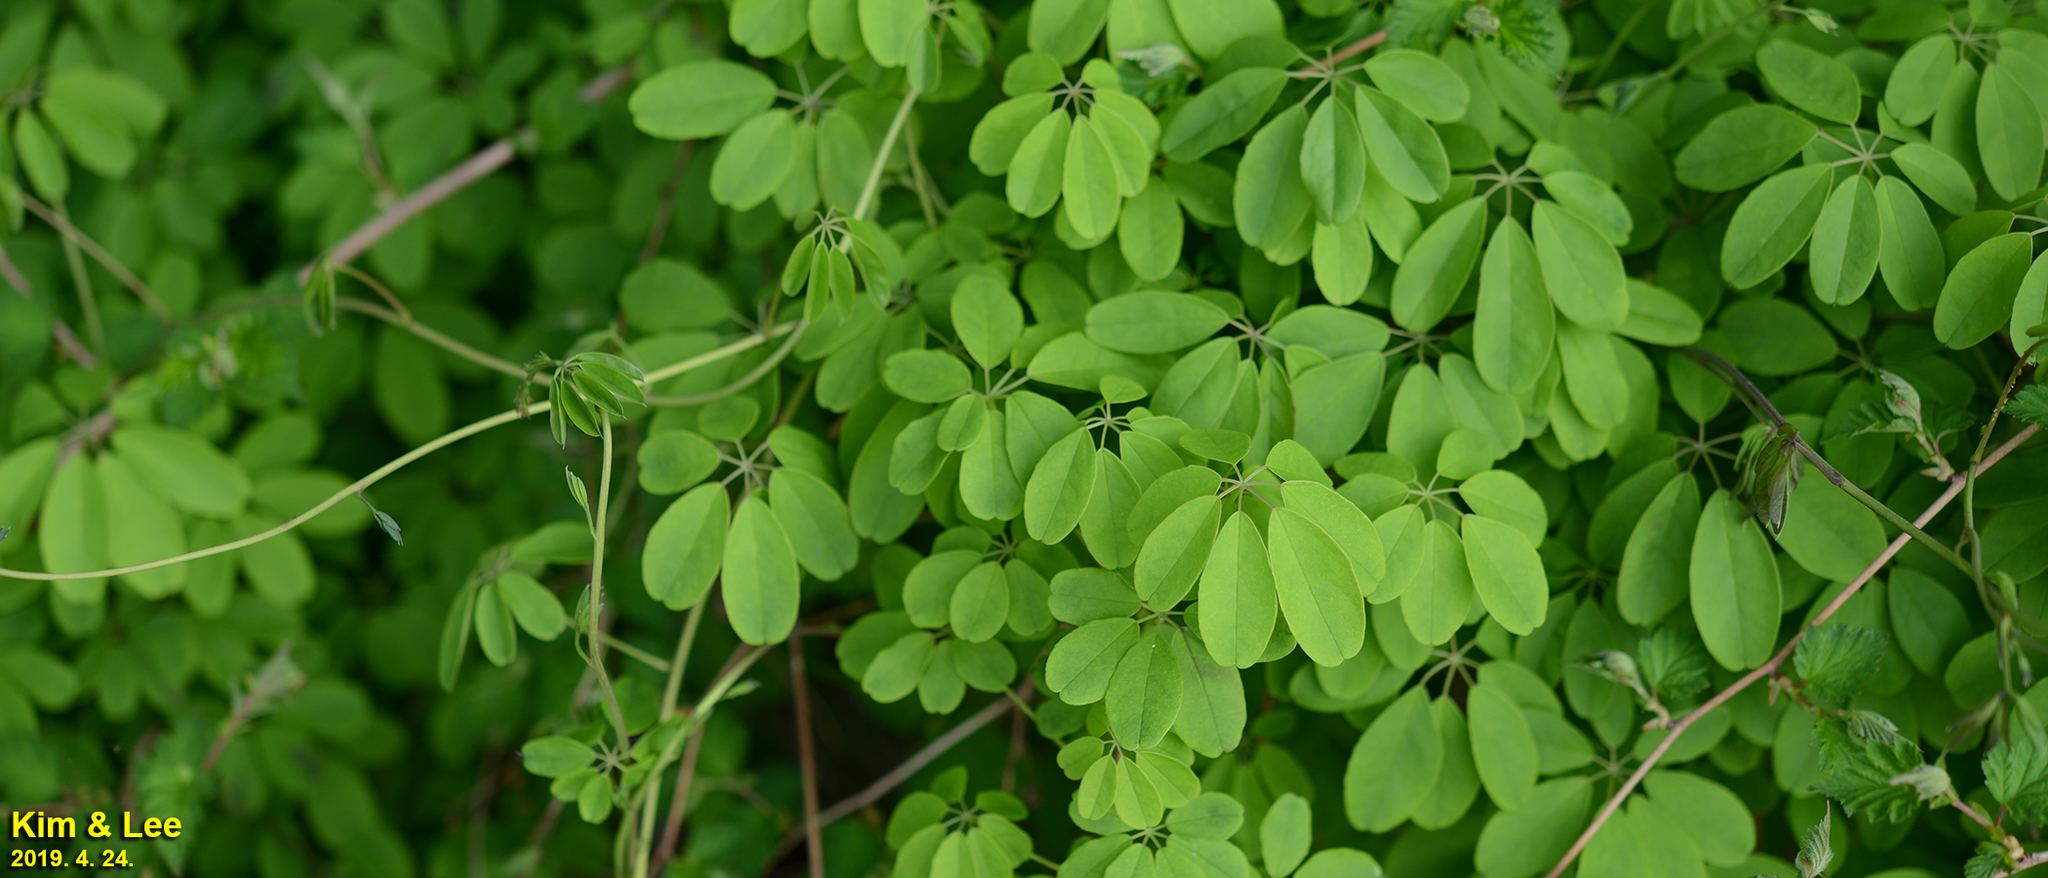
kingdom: Plantae
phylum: Tracheophyta
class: Magnoliopsida
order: Ranunculales
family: Lardizabalaceae
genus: Akebia
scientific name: Akebia quinata
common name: Five-leaf akebia
